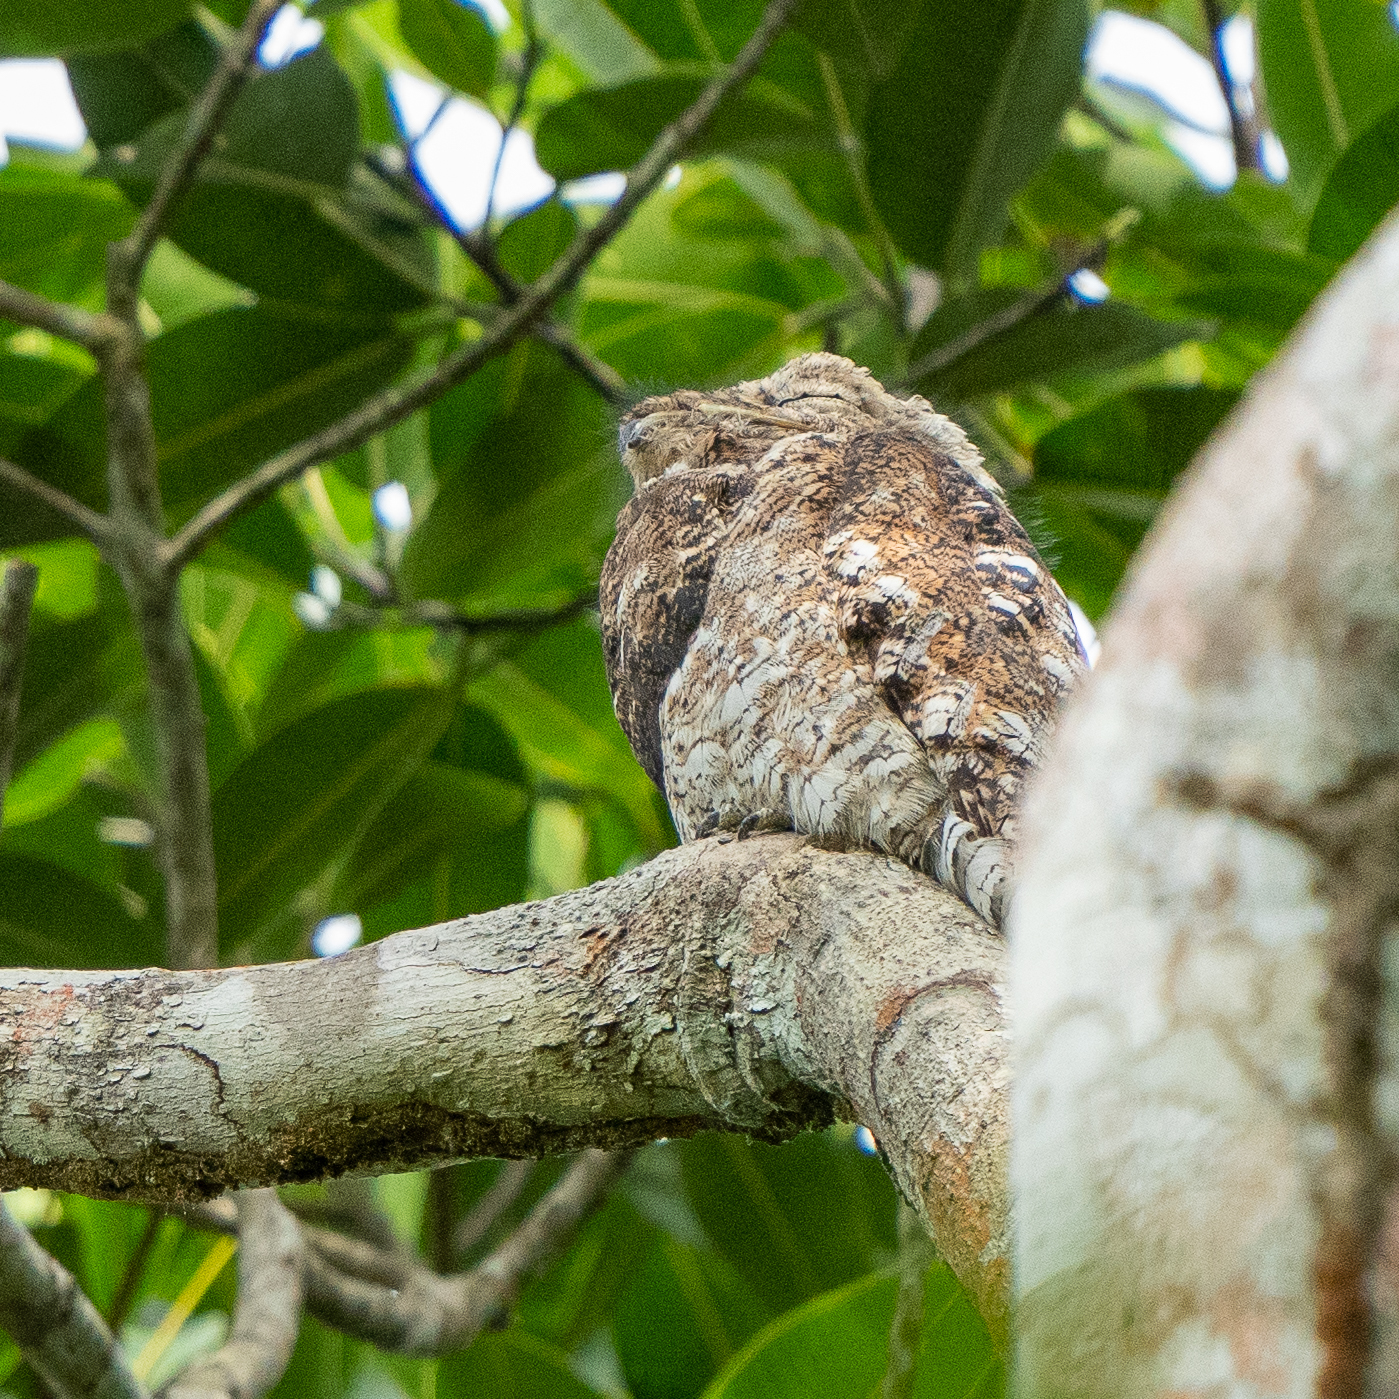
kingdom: Animalia
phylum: Chordata
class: Aves
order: Nyctibiiformes
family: Nyctibiidae
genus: Nyctibius
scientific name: Nyctibius grandis
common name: Great potoo
